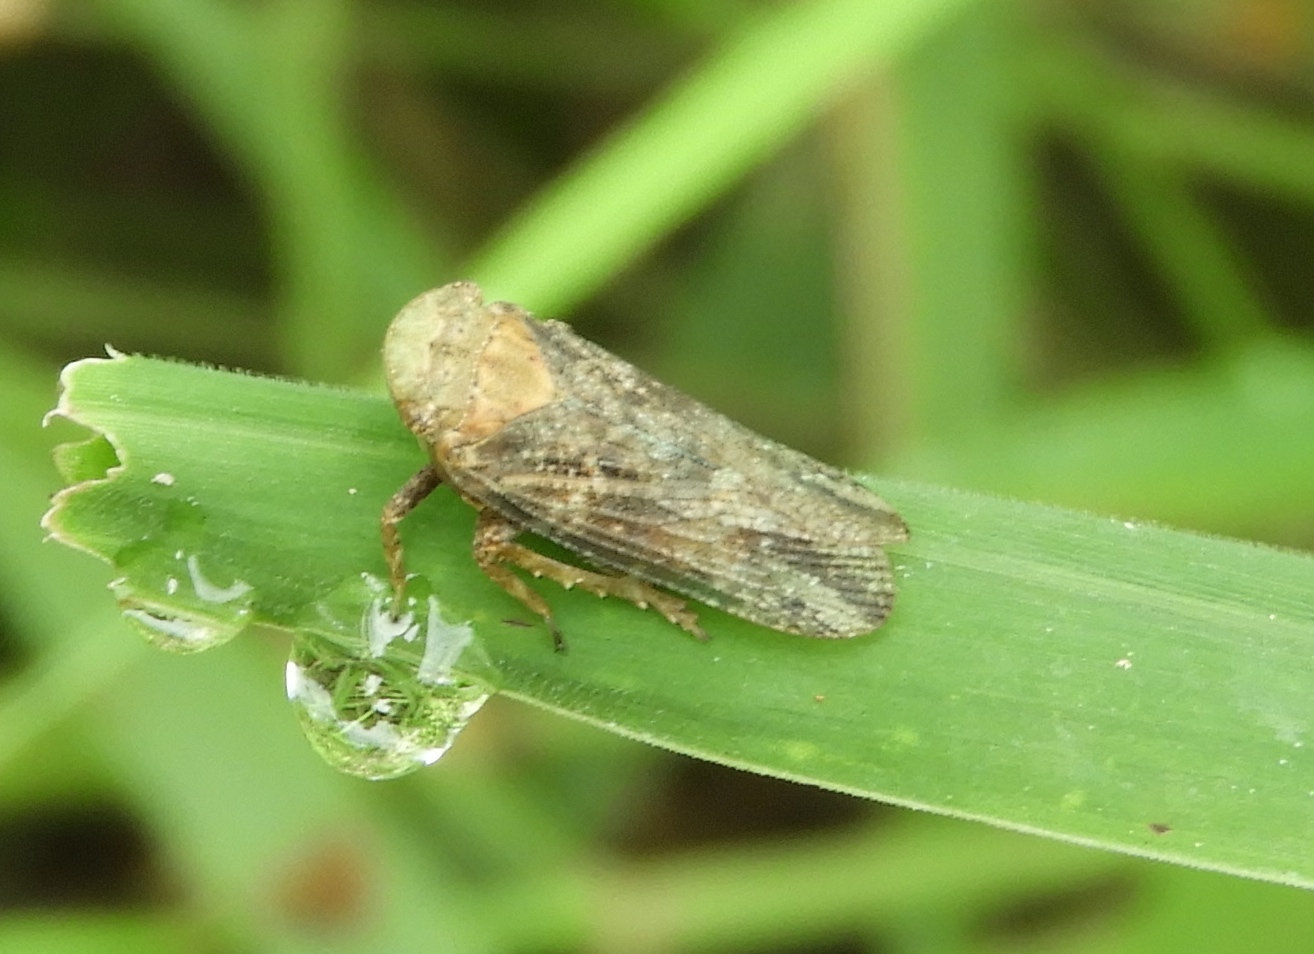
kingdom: Animalia
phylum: Arthropoda
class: Insecta
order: Hemiptera
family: Fulgoridae
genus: Cyrpoptus
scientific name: Cyrpoptus
